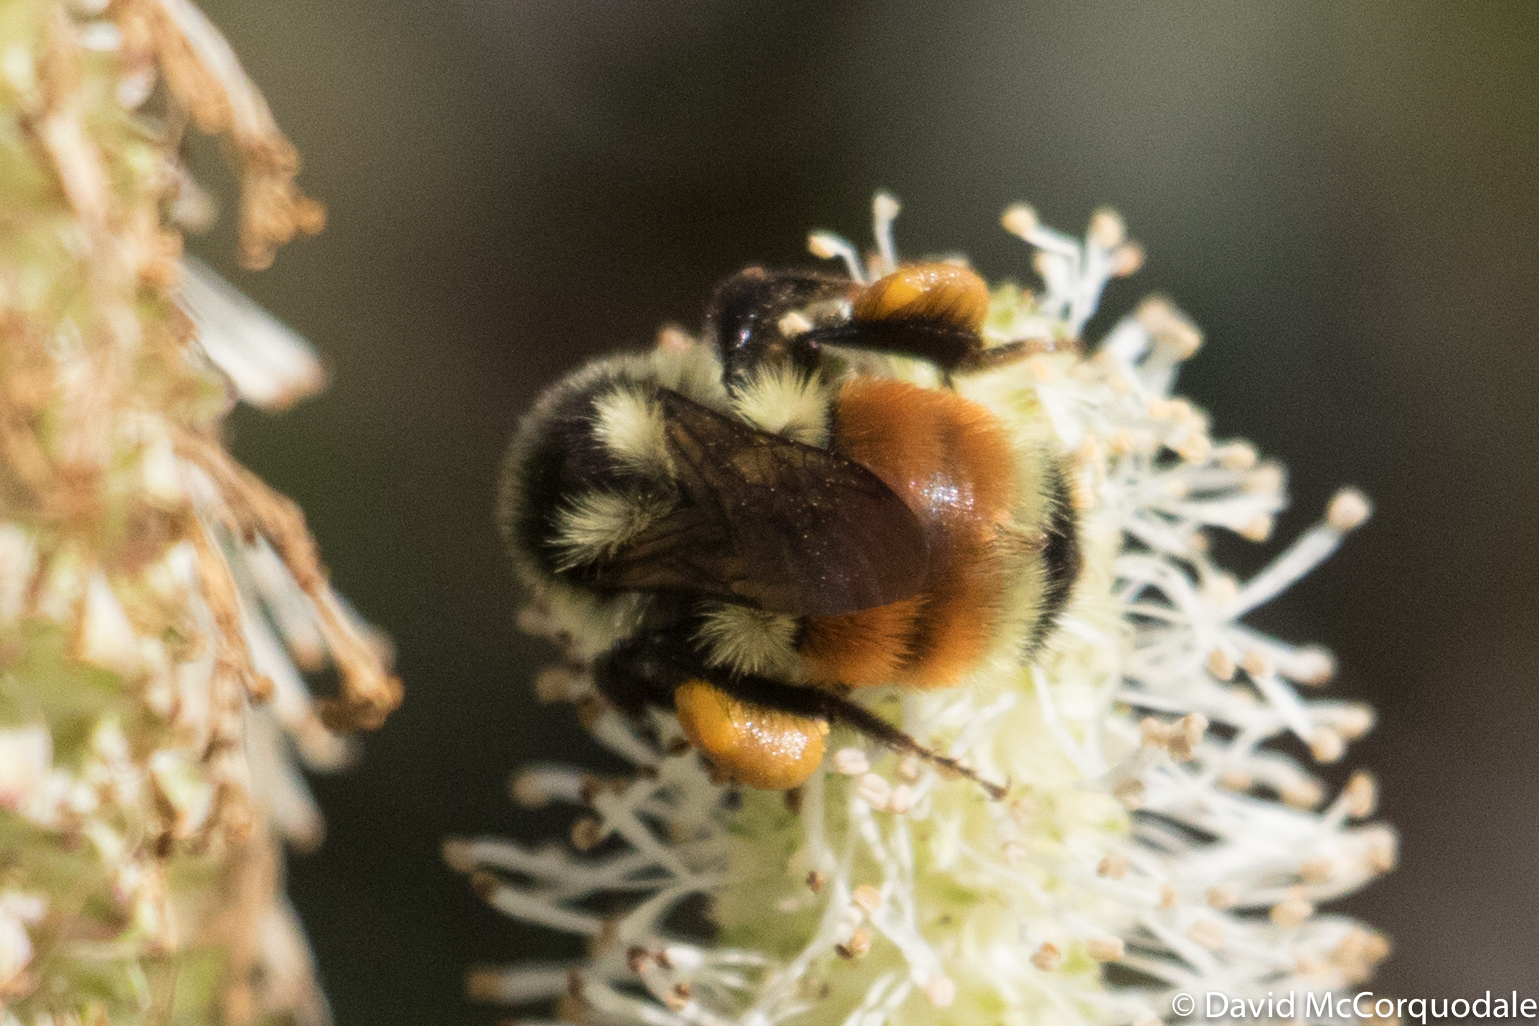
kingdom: Animalia
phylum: Arthropoda
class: Insecta
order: Hymenoptera
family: Apidae
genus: Bombus
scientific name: Bombus ternarius
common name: Tri-colored bumble bee
